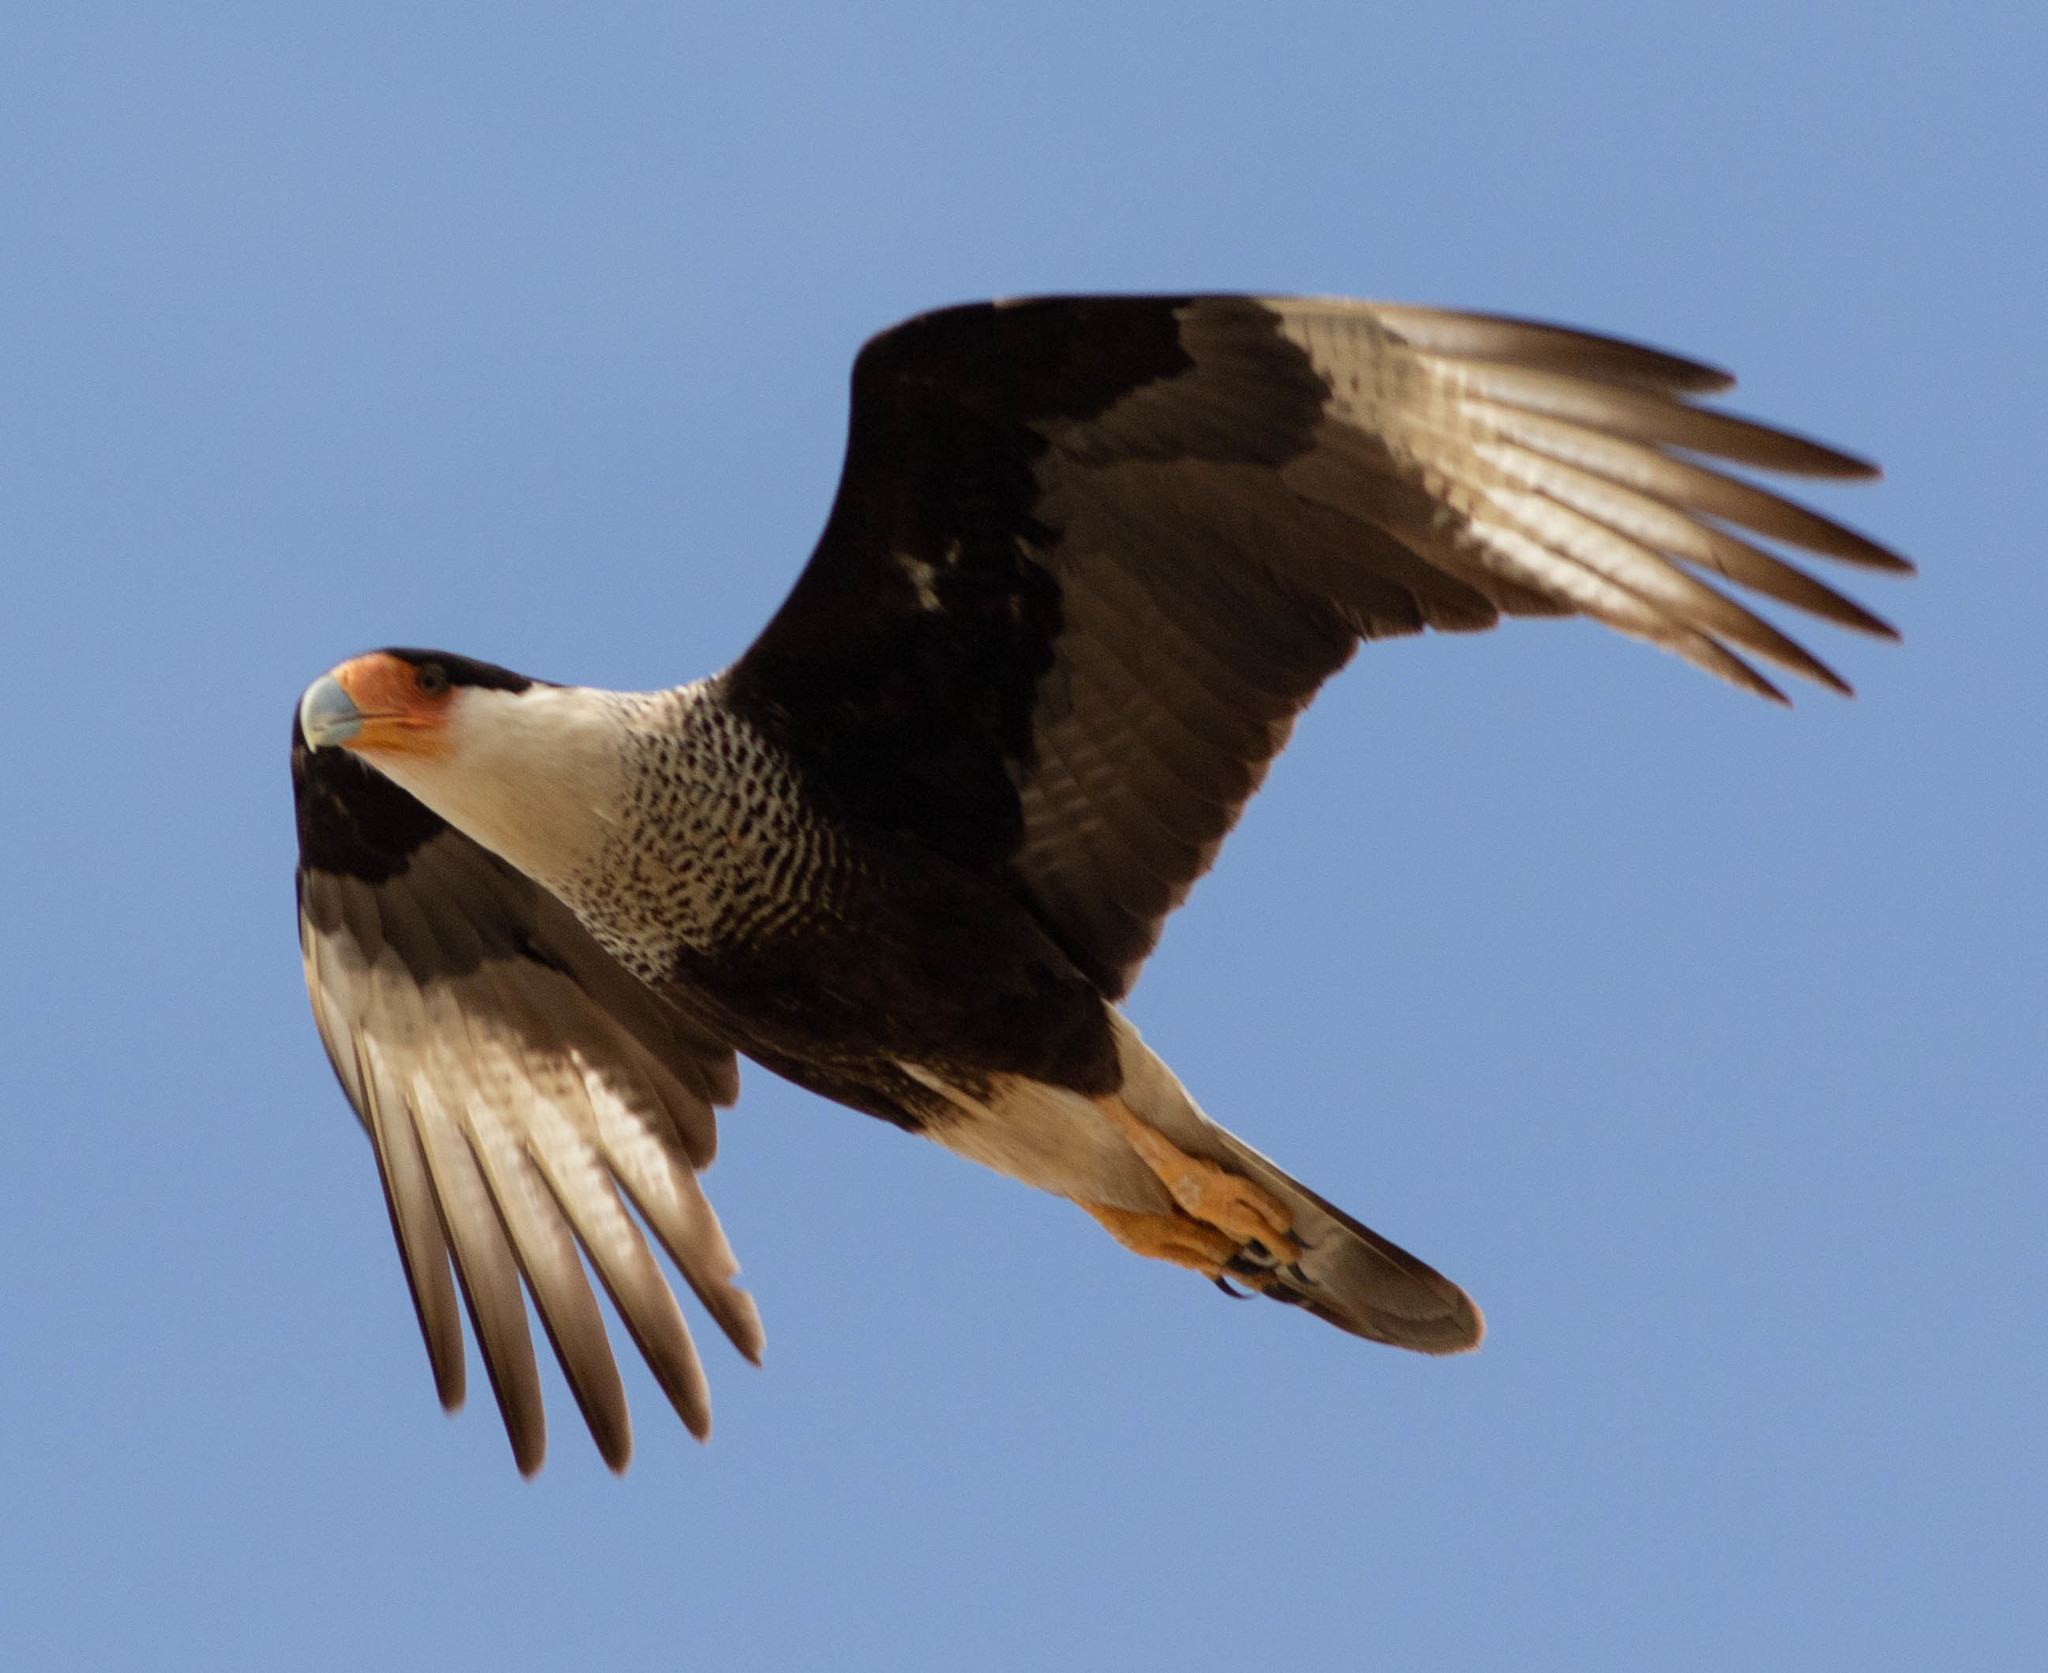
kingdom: Animalia
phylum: Chordata
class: Aves
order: Falconiformes
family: Falconidae
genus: Caracara
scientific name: Caracara plancus
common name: Southern caracara
